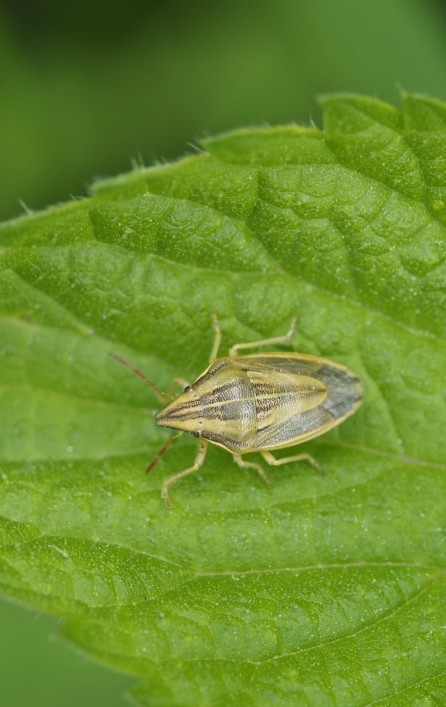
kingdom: Animalia
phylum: Arthropoda
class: Insecta
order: Hemiptera
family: Pentatomidae
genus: Aelia
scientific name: Aelia acuminata
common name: Bishop's mitre
